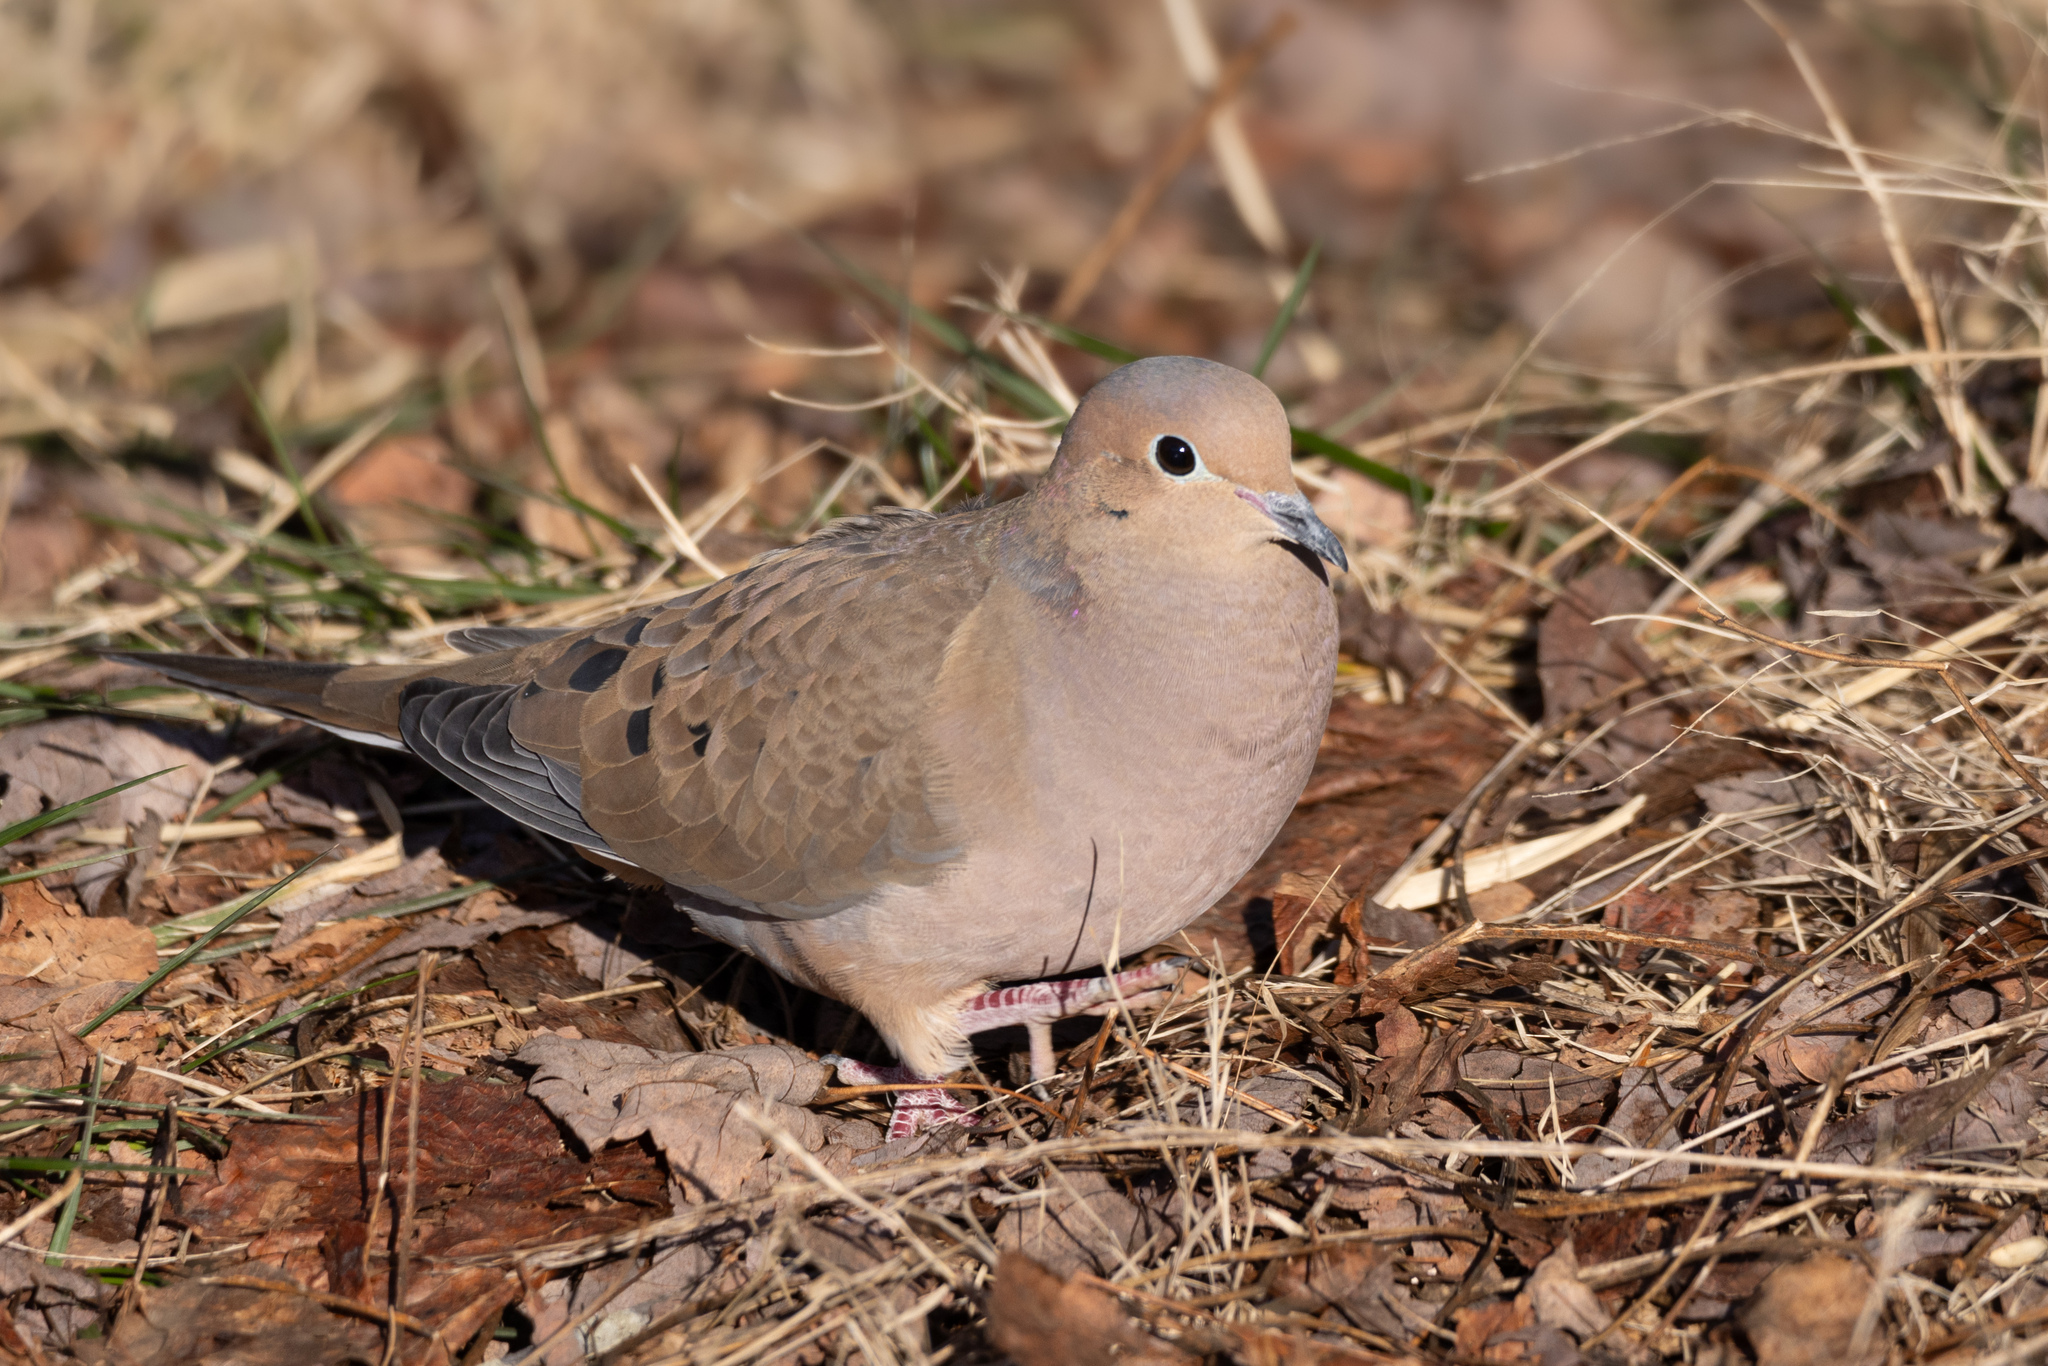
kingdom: Animalia
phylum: Chordata
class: Aves
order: Columbiformes
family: Columbidae
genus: Zenaida
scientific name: Zenaida macroura
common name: Mourning dove
